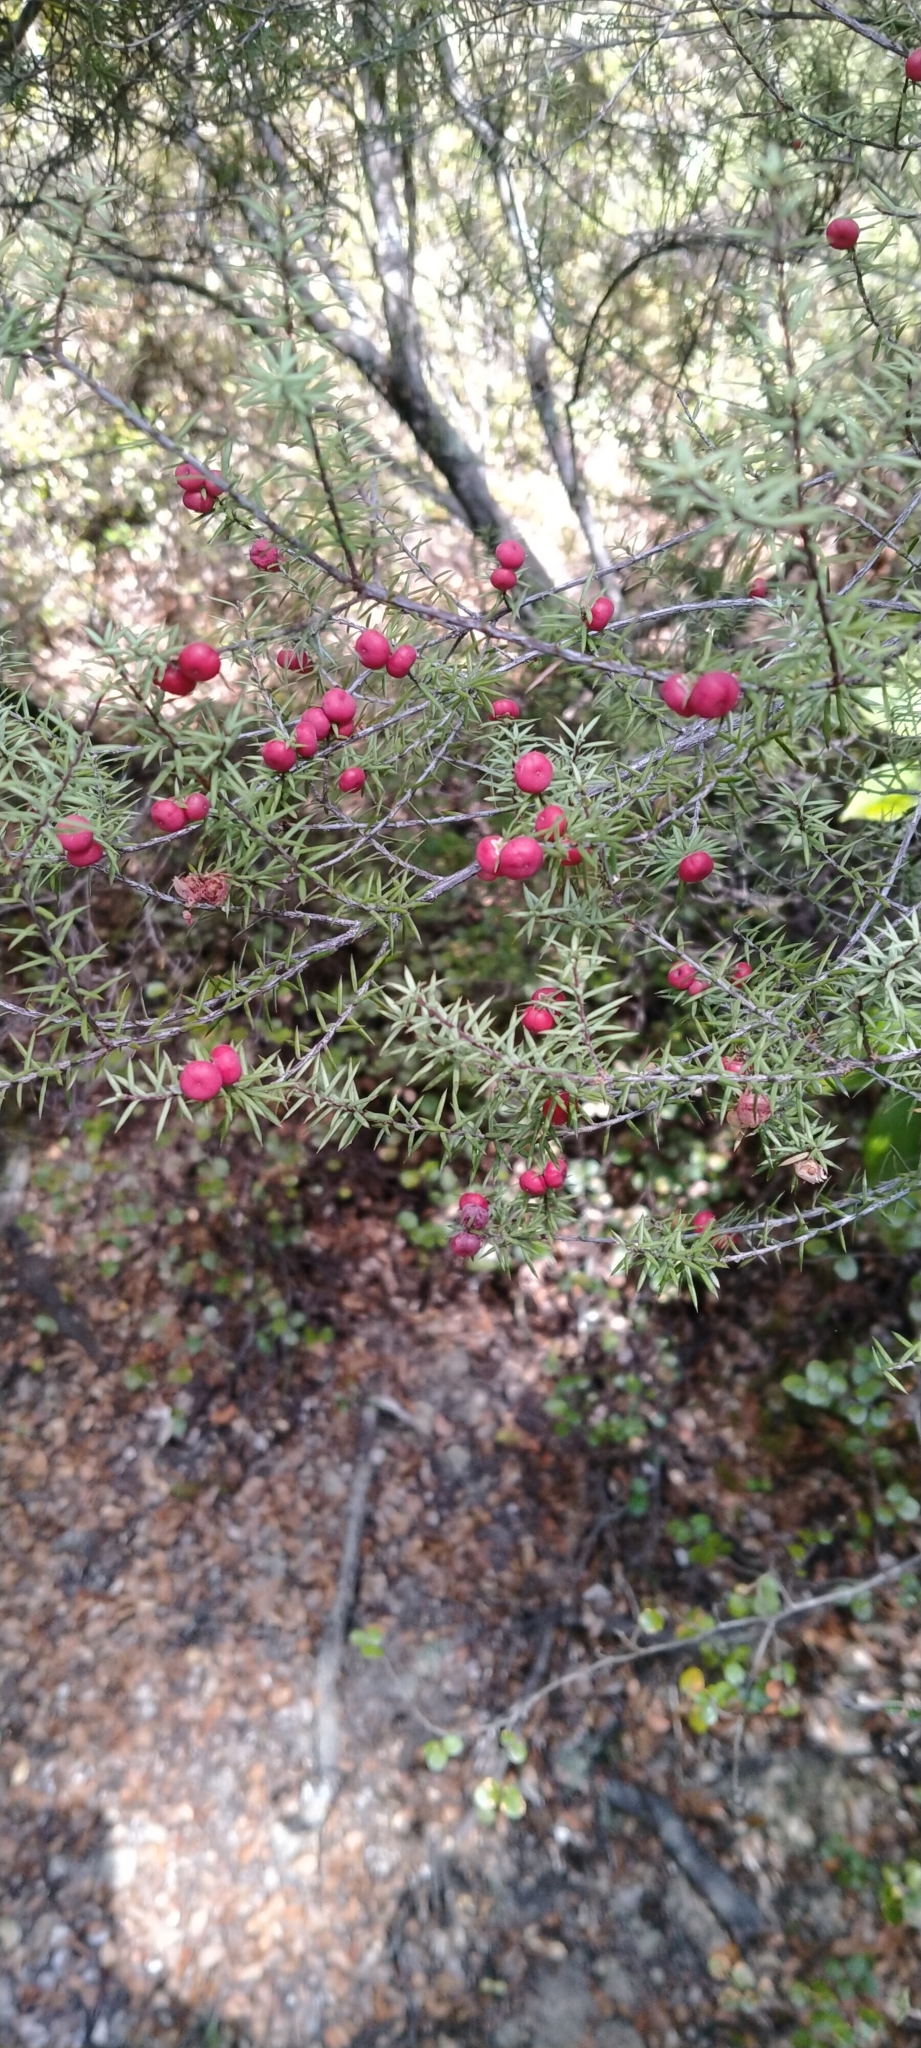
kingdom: Plantae
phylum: Tracheophyta
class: Magnoliopsida
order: Ericales
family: Ericaceae
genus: Leptecophylla
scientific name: Leptecophylla juniperina
